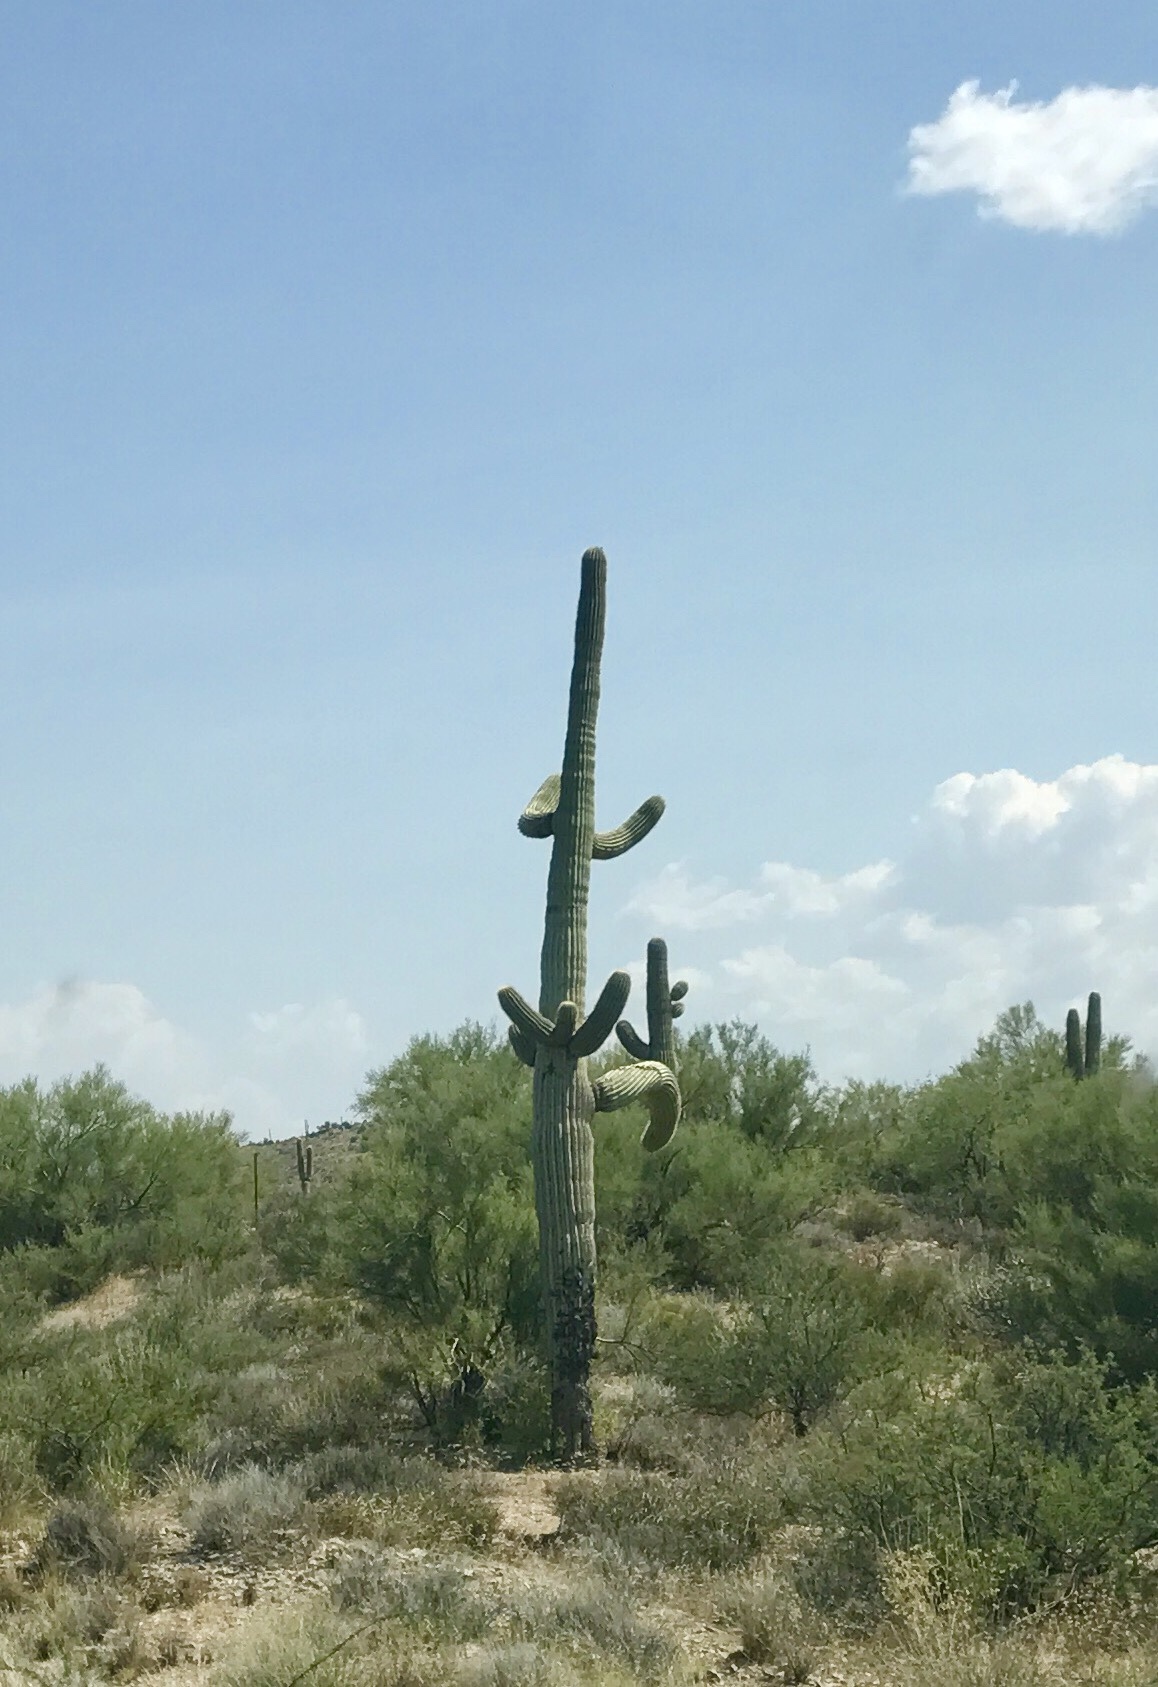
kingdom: Plantae
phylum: Tracheophyta
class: Magnoliopsida
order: Caryophyllales
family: Cactaceae
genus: Carnegiea
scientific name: Carnegiea gigantea
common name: Saguaro
